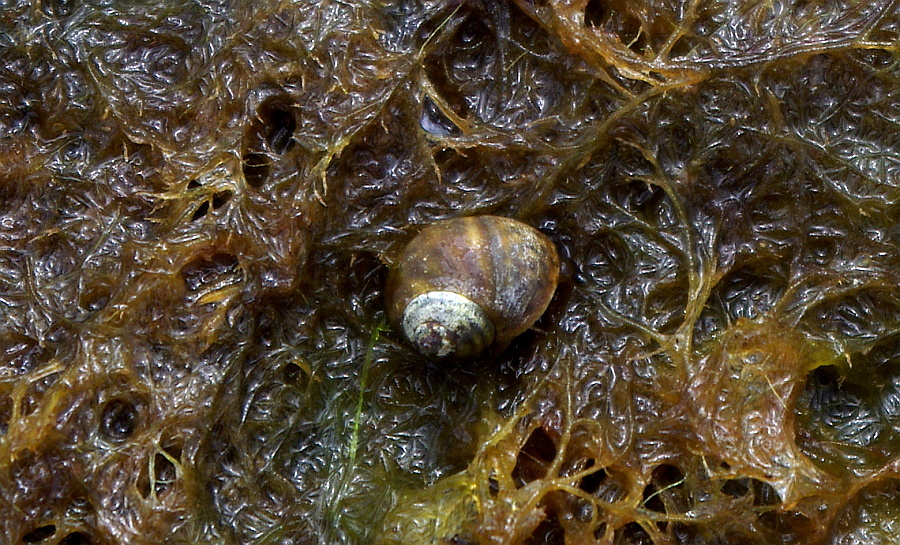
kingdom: Animalia
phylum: Mollusca
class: Gastropoda
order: Littorinimorpha
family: Littorinidae
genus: Littorina
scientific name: Littorina obtusata
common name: Flat periwinkle
